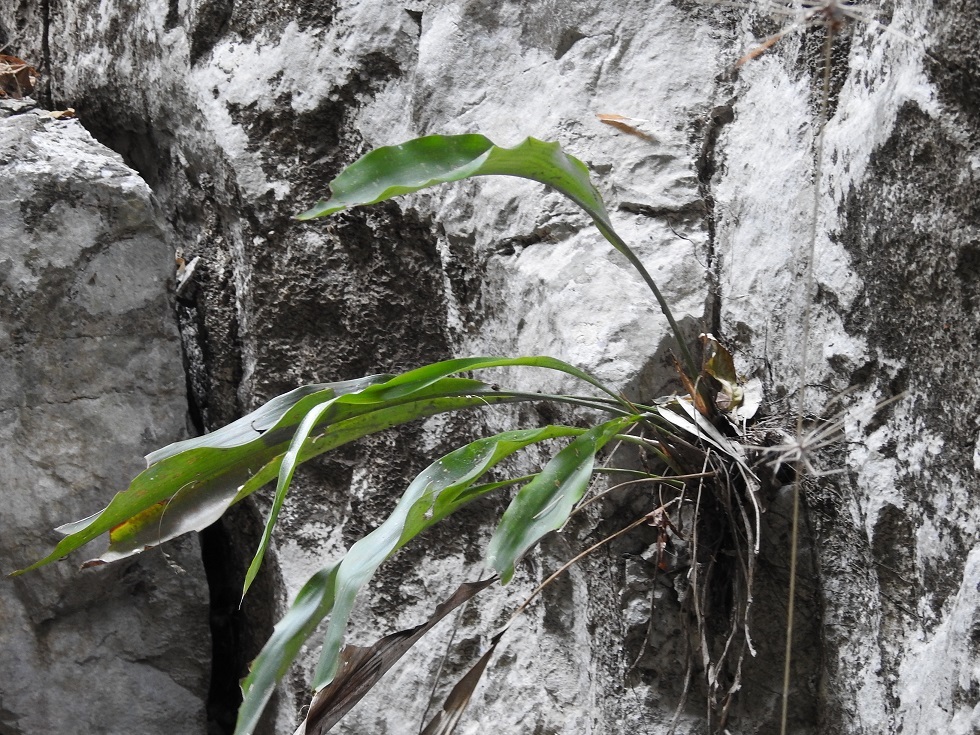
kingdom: Plantae
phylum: Tracheophyta
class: Liliopsida
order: Poales
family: Bromeliaceae
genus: Pitcairnia
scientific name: Pitcairnia chiapensis
